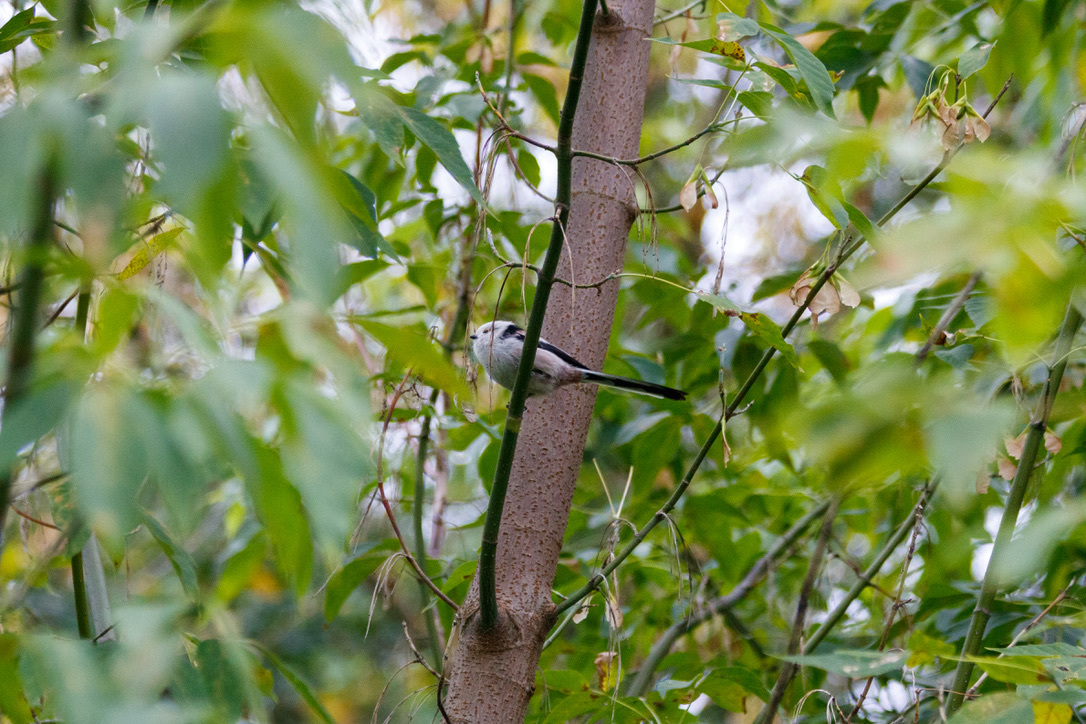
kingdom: Animalia
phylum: Chordata
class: Aves
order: Passeriformes
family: Aegithalidae
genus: Aegithalos
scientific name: Aegithalos caudatus
